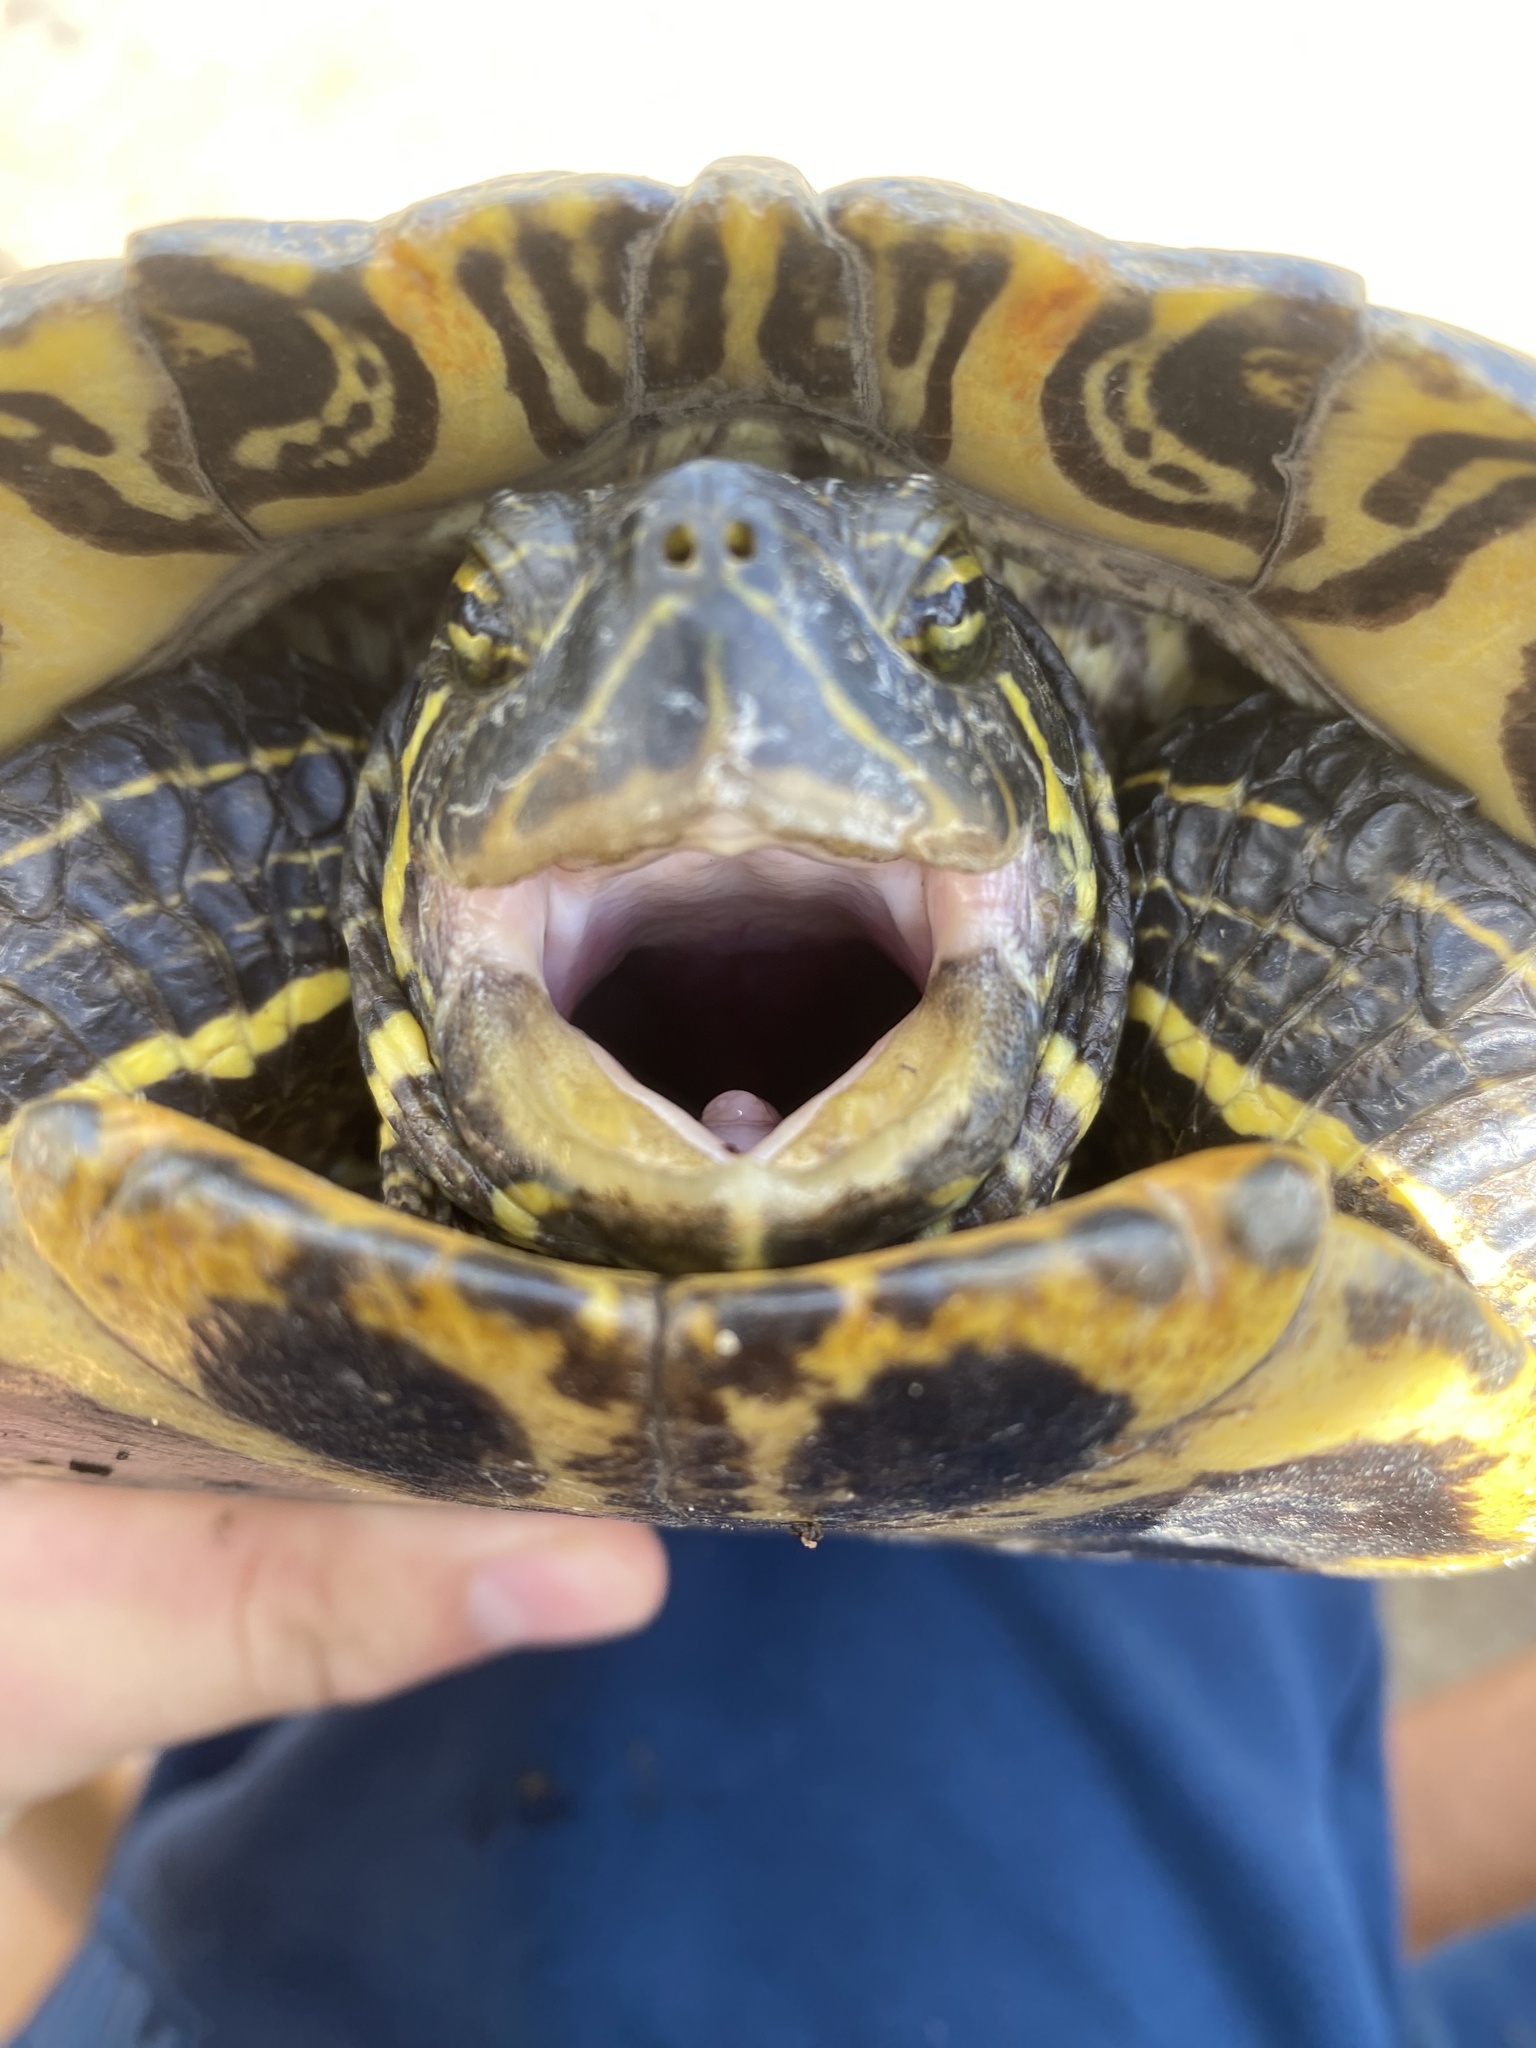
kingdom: Animalia
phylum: Chordata
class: Testudines
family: Emydidae
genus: Trachemys
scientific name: Trachemys scripta
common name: Slider
